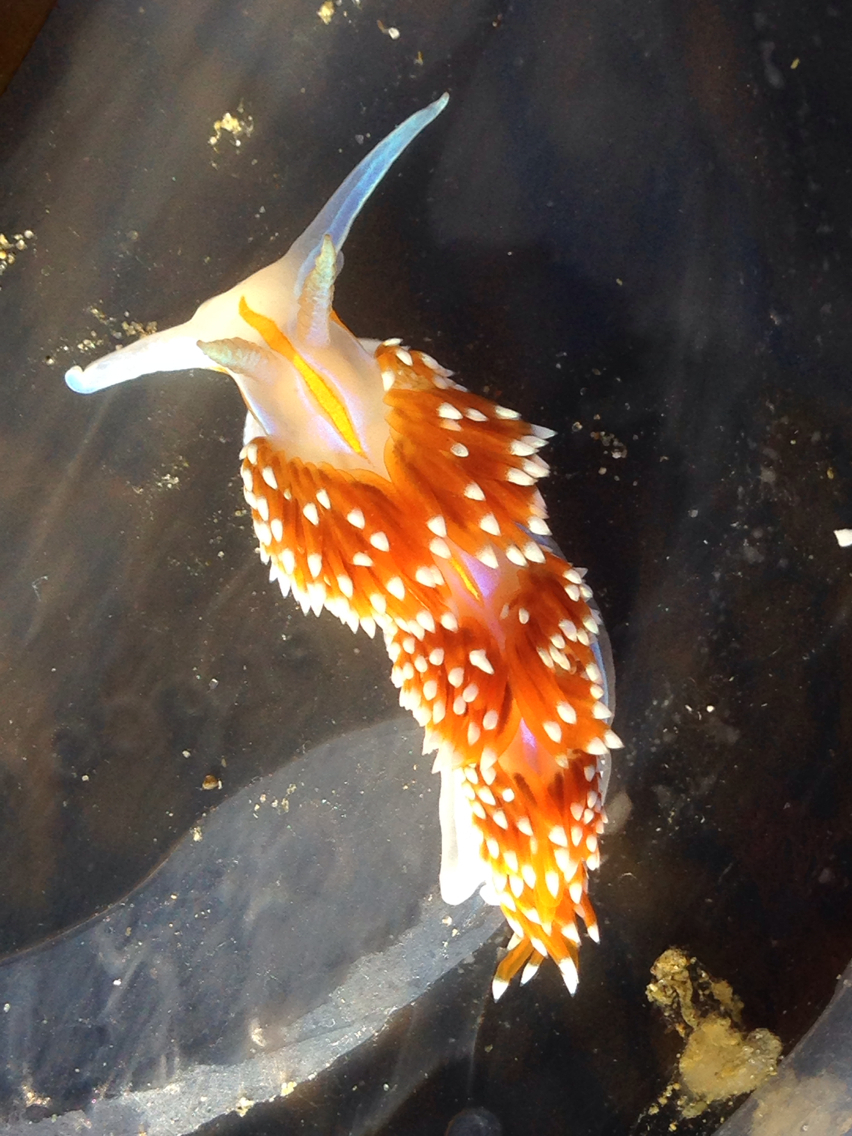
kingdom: Animalia
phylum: Mollusca
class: Gastropoda
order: Nudibranchia
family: Myrrhinidae
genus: Hermissenda
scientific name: Hermissenda opalescens
